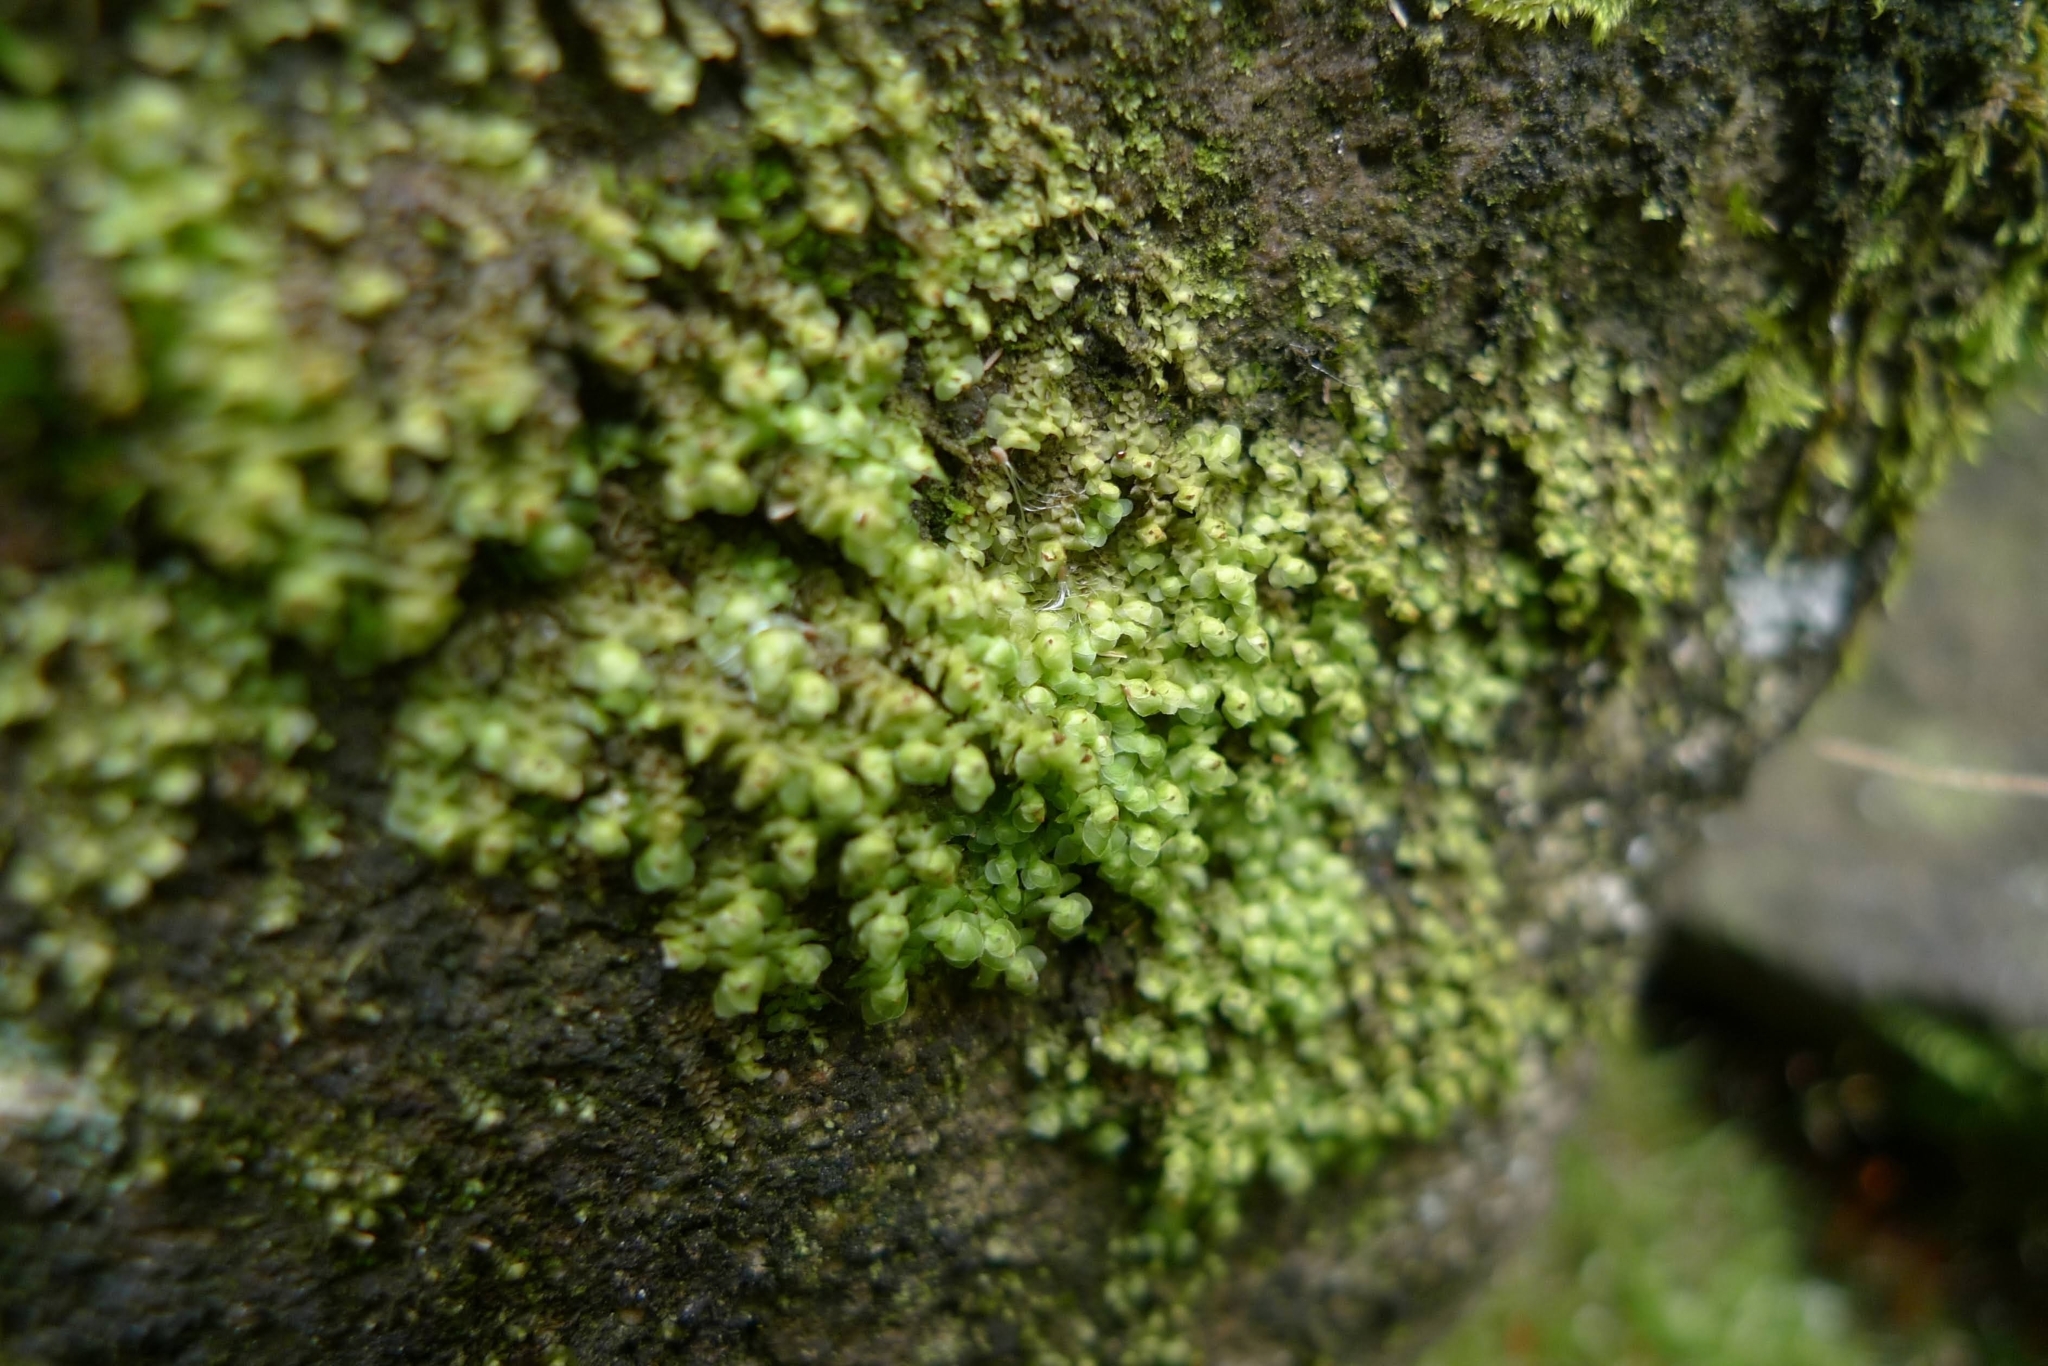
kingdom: Plantae
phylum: Marchantiophyta
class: Jungermanniopsida
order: Jungermanniales
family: Scapaniaceae
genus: Scapania
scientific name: Scapania nemorea
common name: Grove earwort
